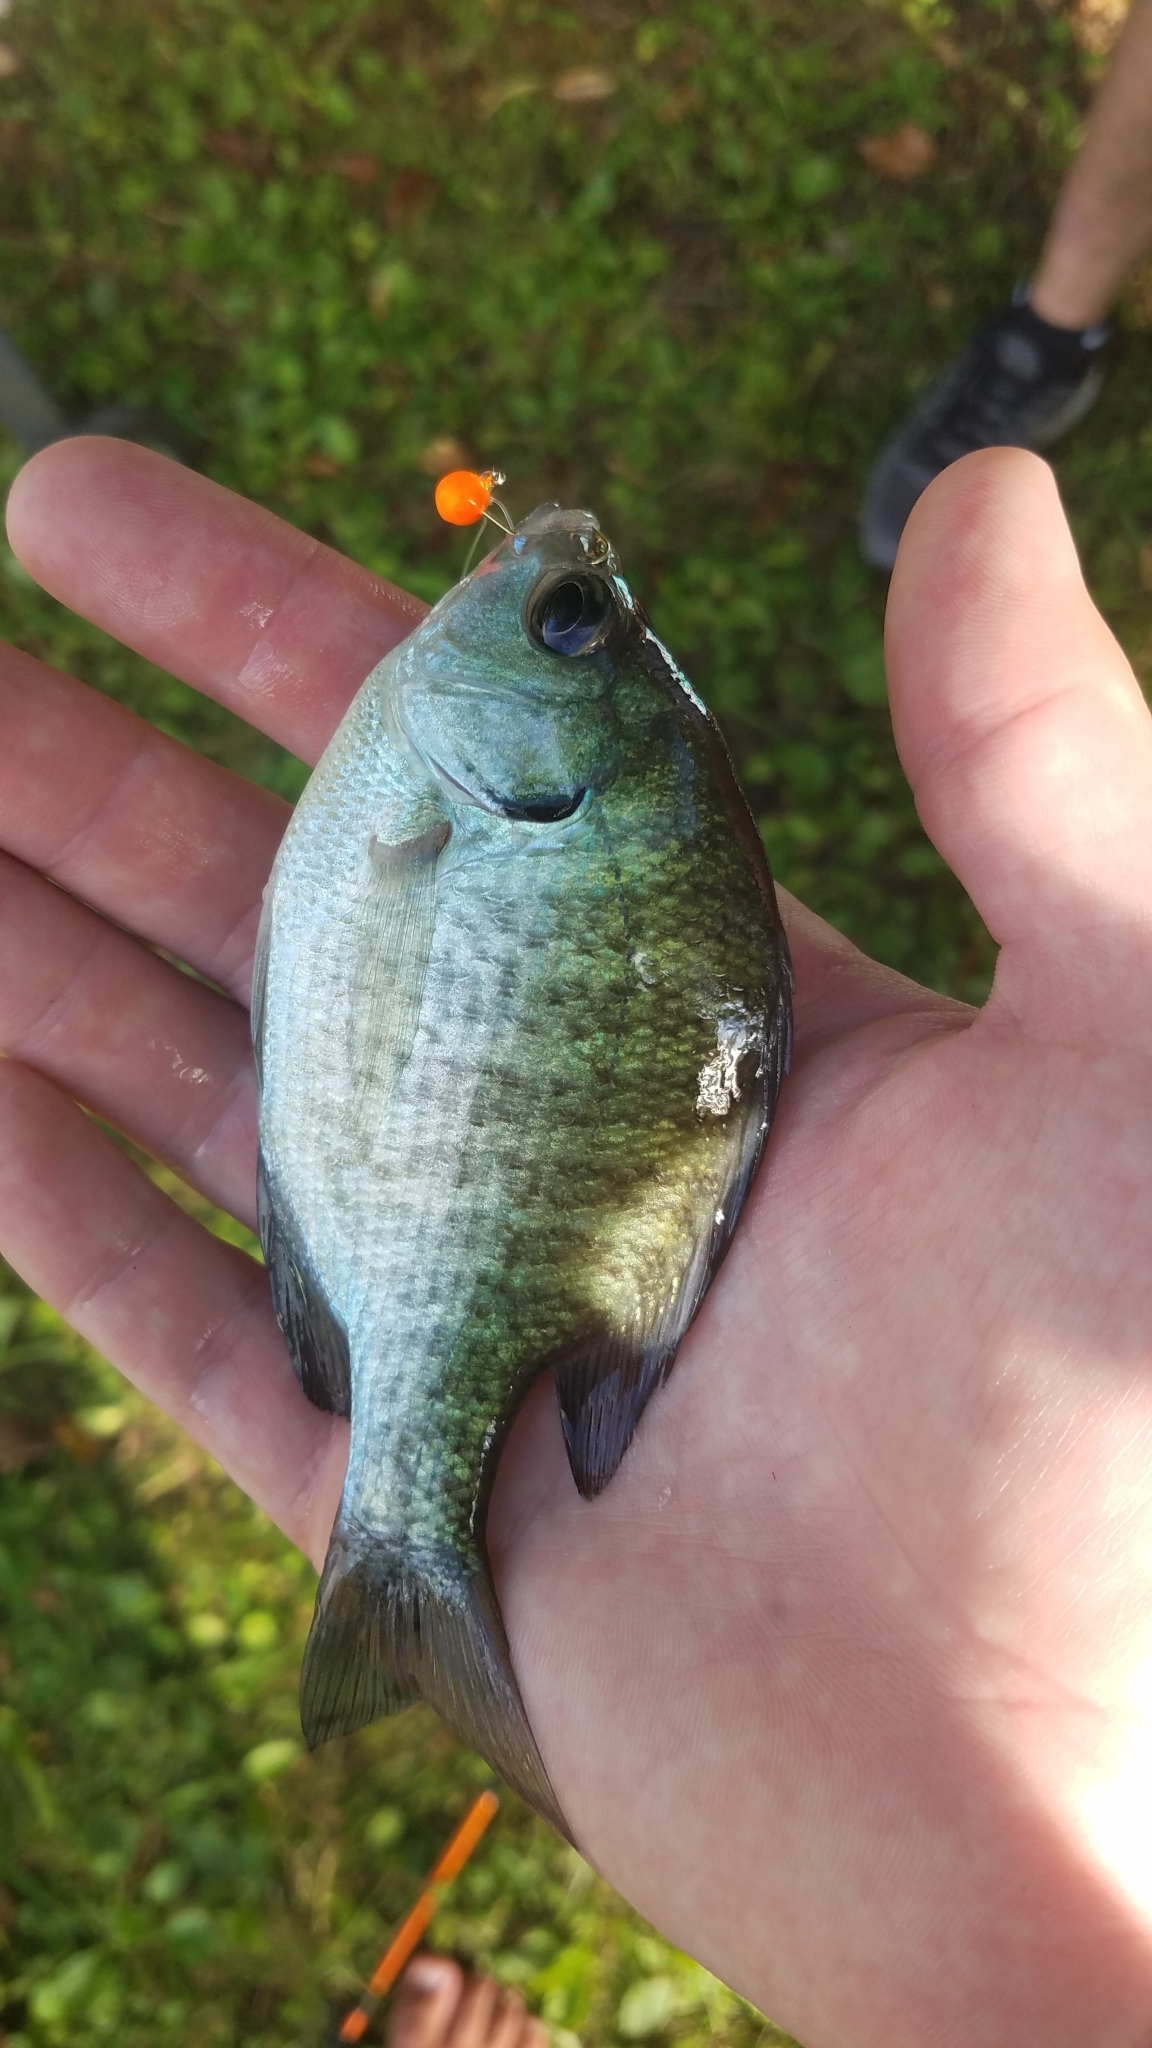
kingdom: Animalia
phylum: Chordata
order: Perciformes
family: Centrarchidae
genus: Lepomis
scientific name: Lepomis macrochirus
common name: Bluegill
